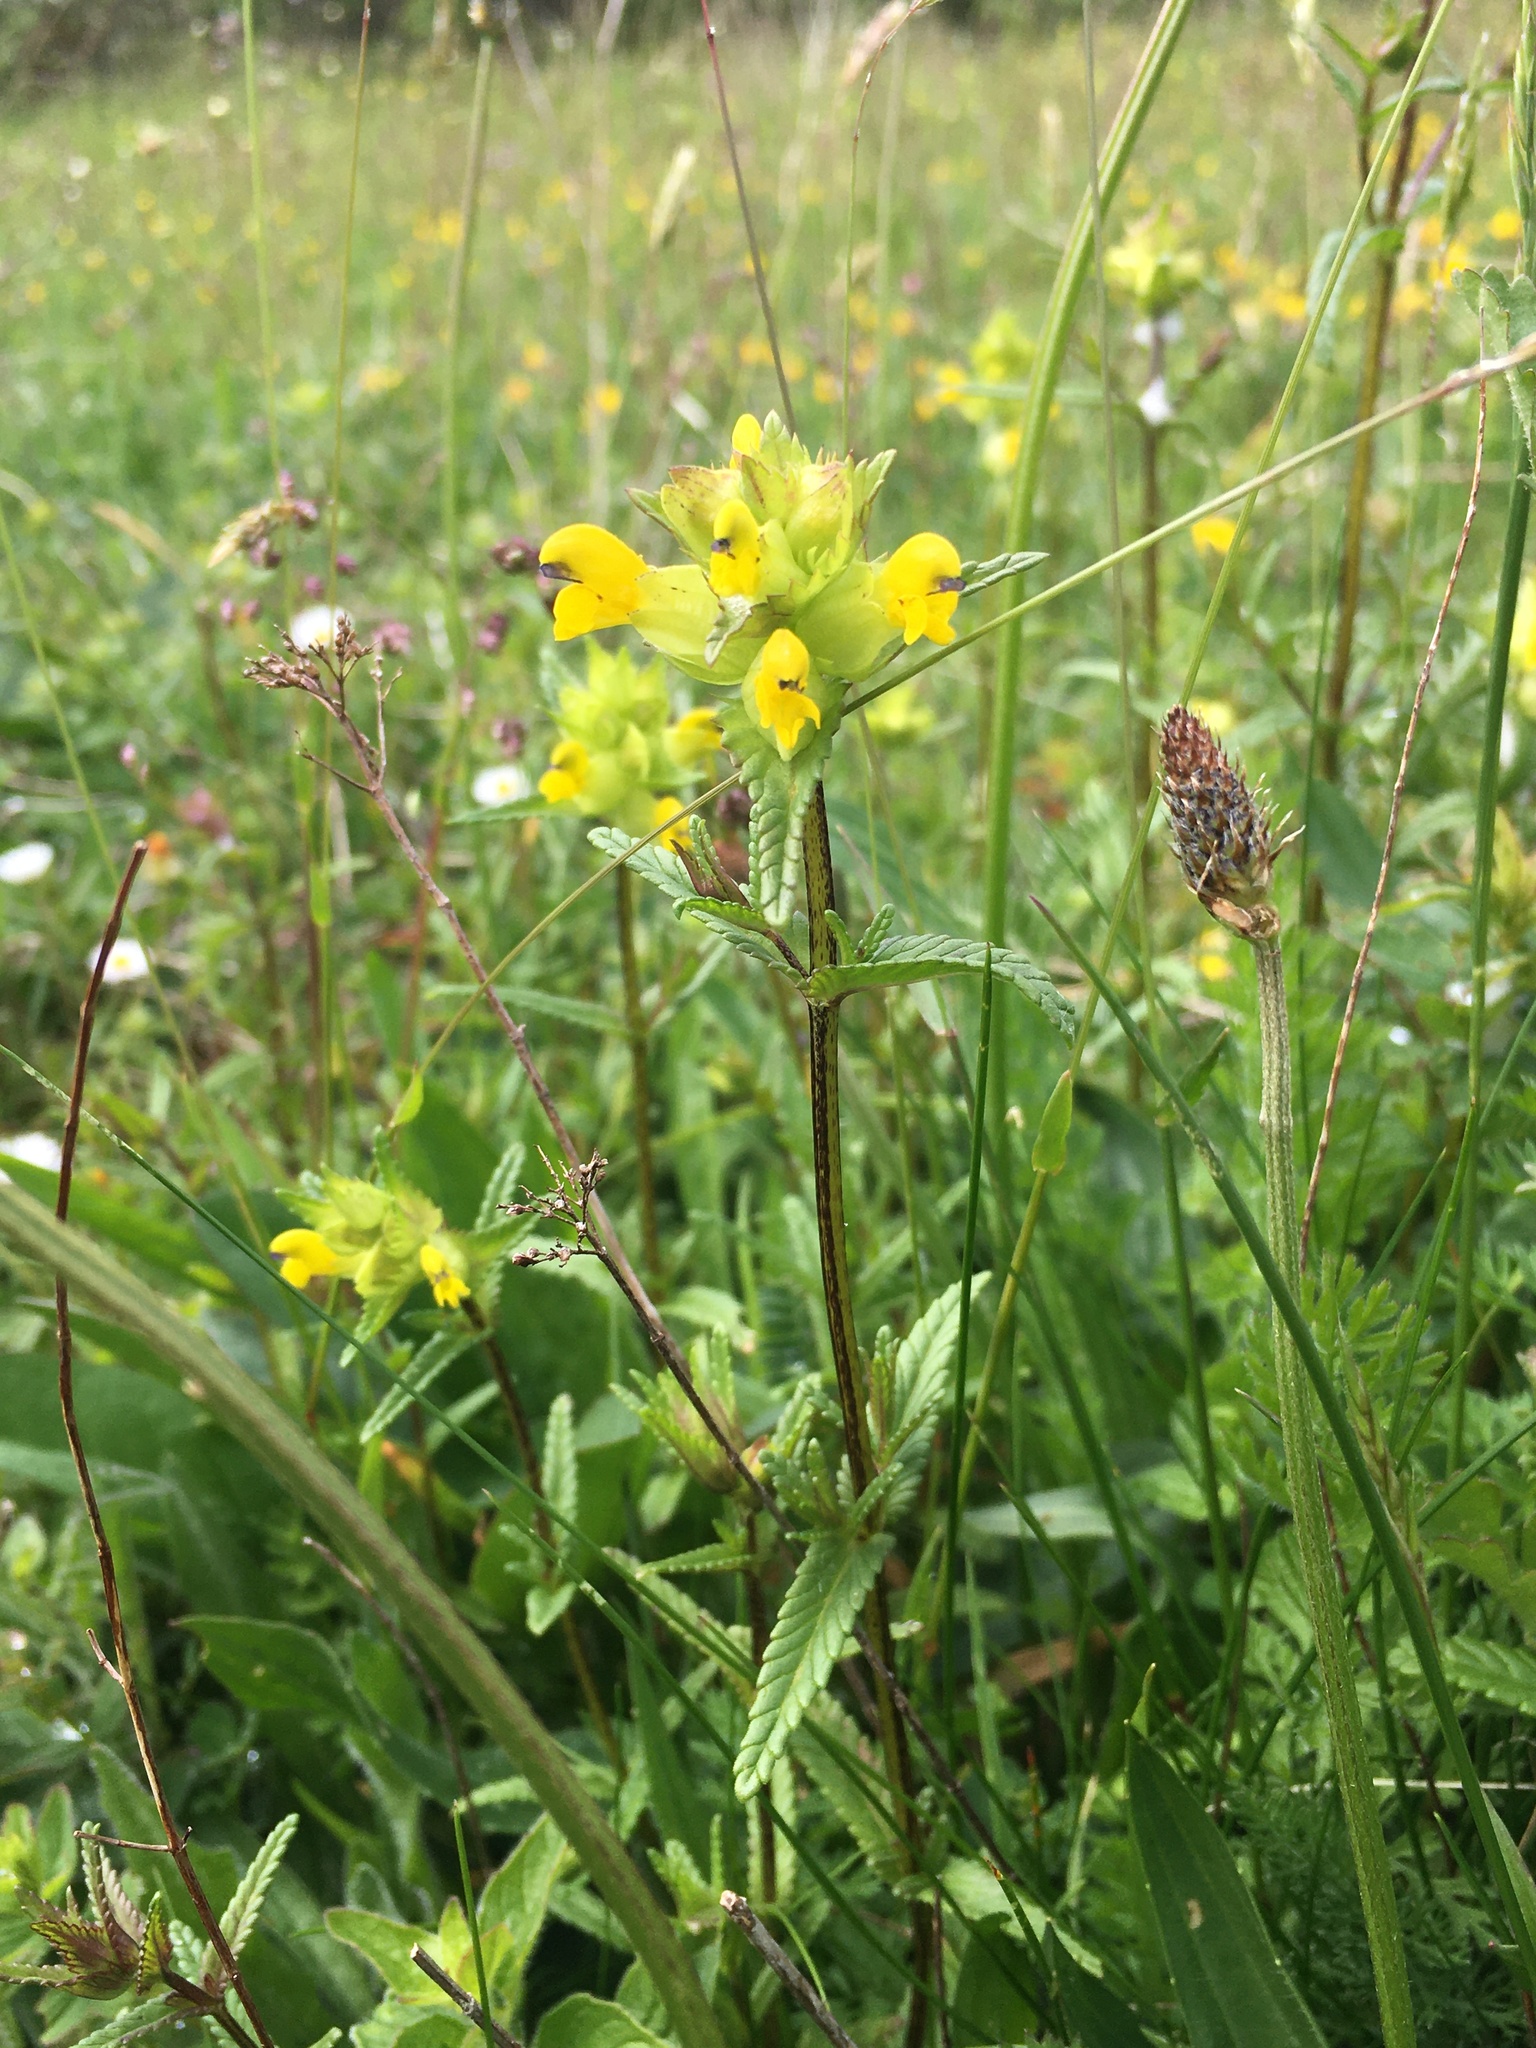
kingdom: Plantae
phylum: Tracheophyta
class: Magnoliopsida
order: Lamiales
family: Orobanchaceae
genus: Rhinanthus
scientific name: Rhinanthus minor
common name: Yellow-rattle
